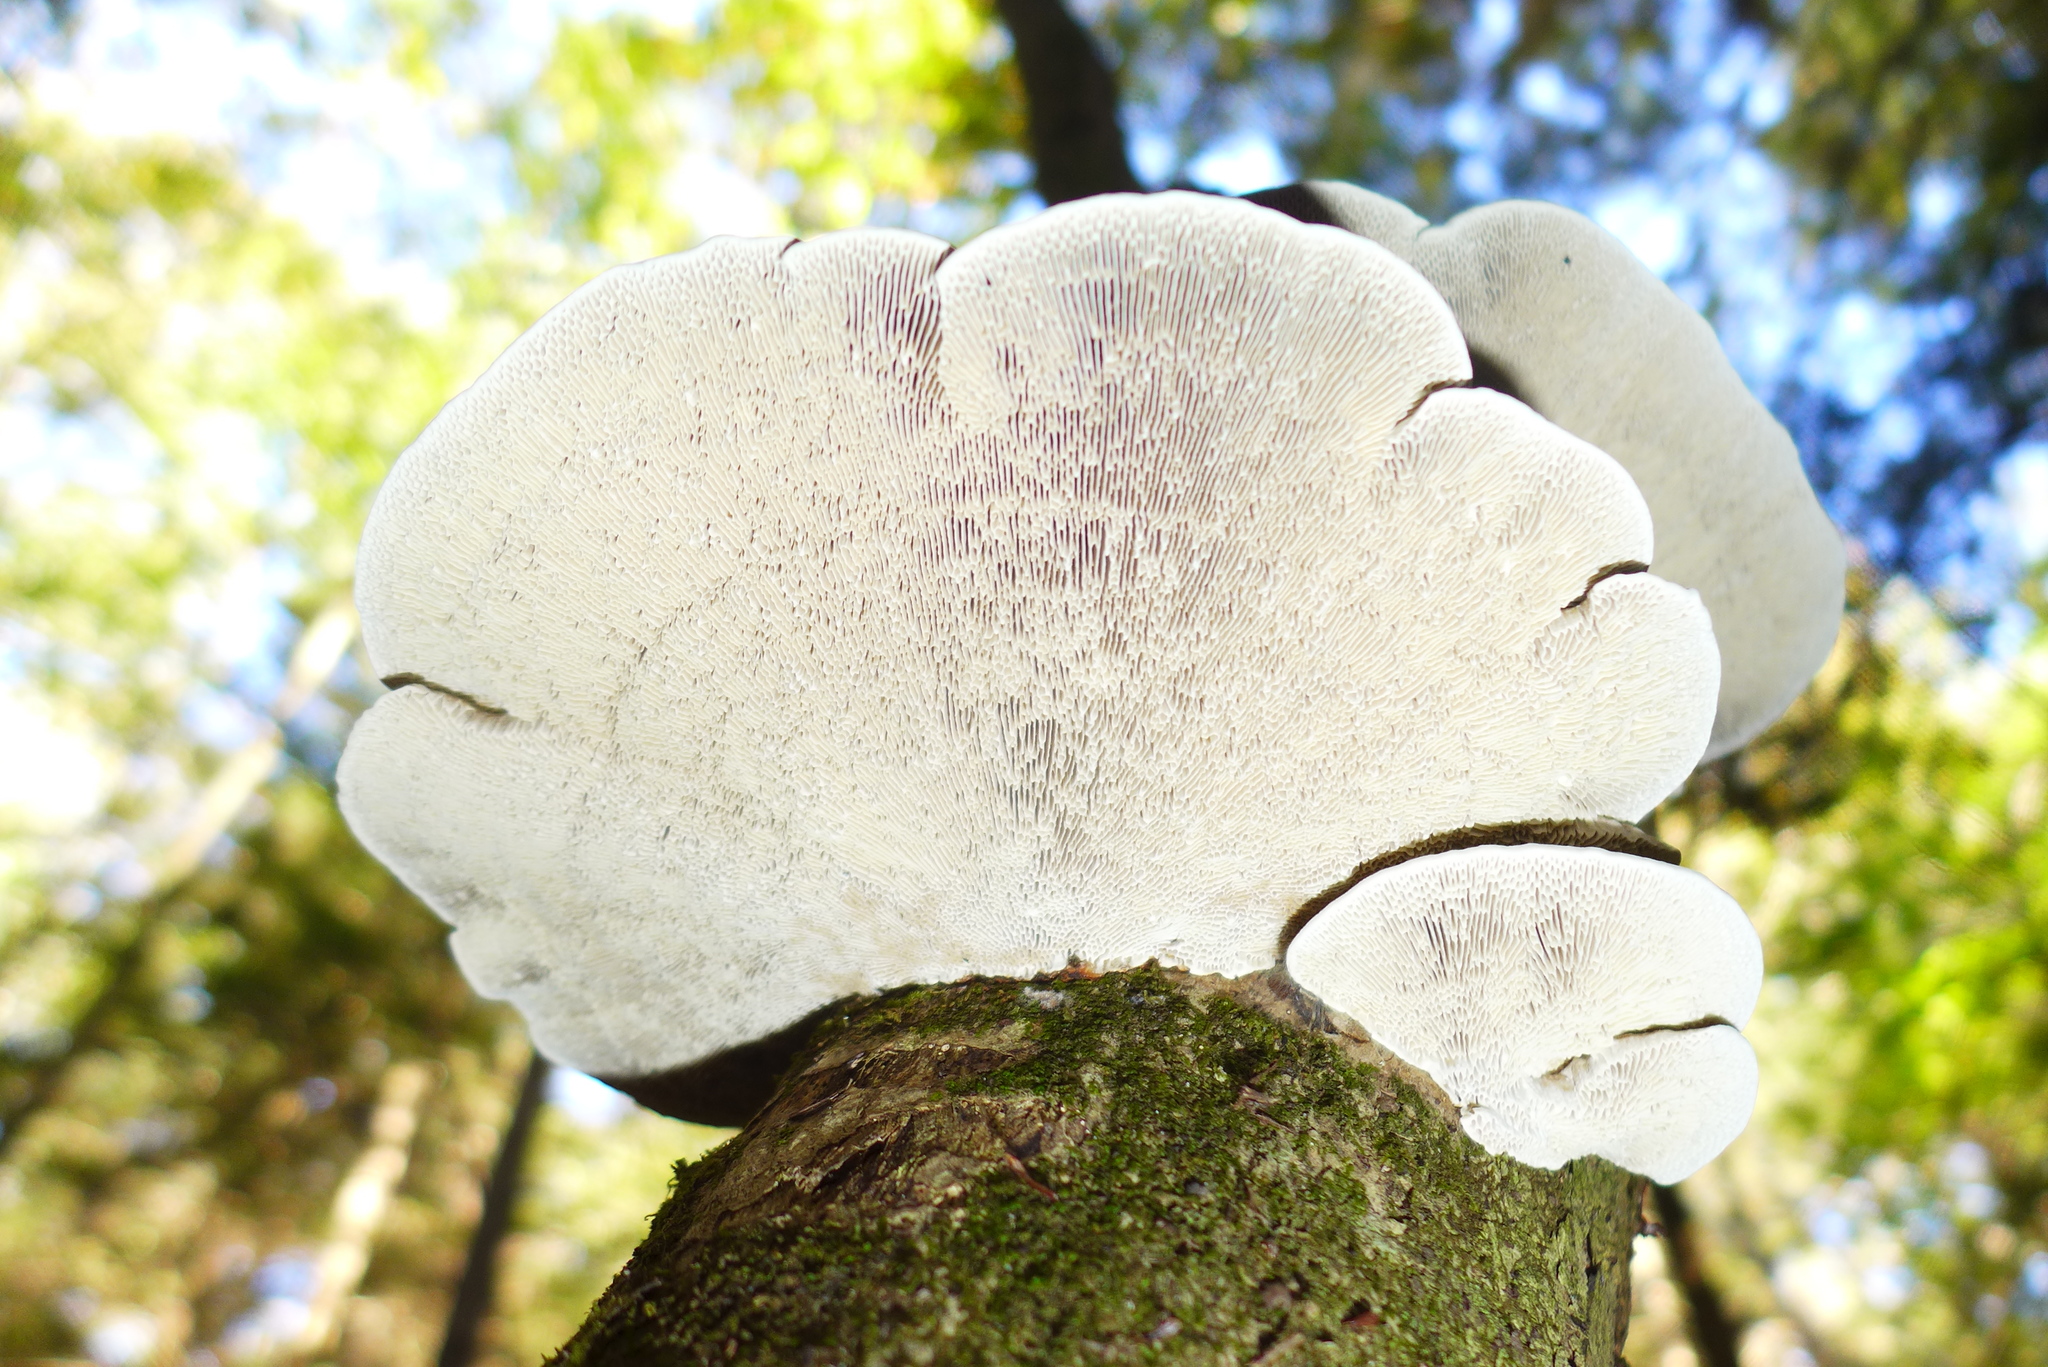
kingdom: Fungi
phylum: Basidiomycota
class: Agaricomycetes
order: Polyporales
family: Polyporaceae
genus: Daedaleopsis
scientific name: Daedaleopsis confragosa
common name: Blushing bracket
